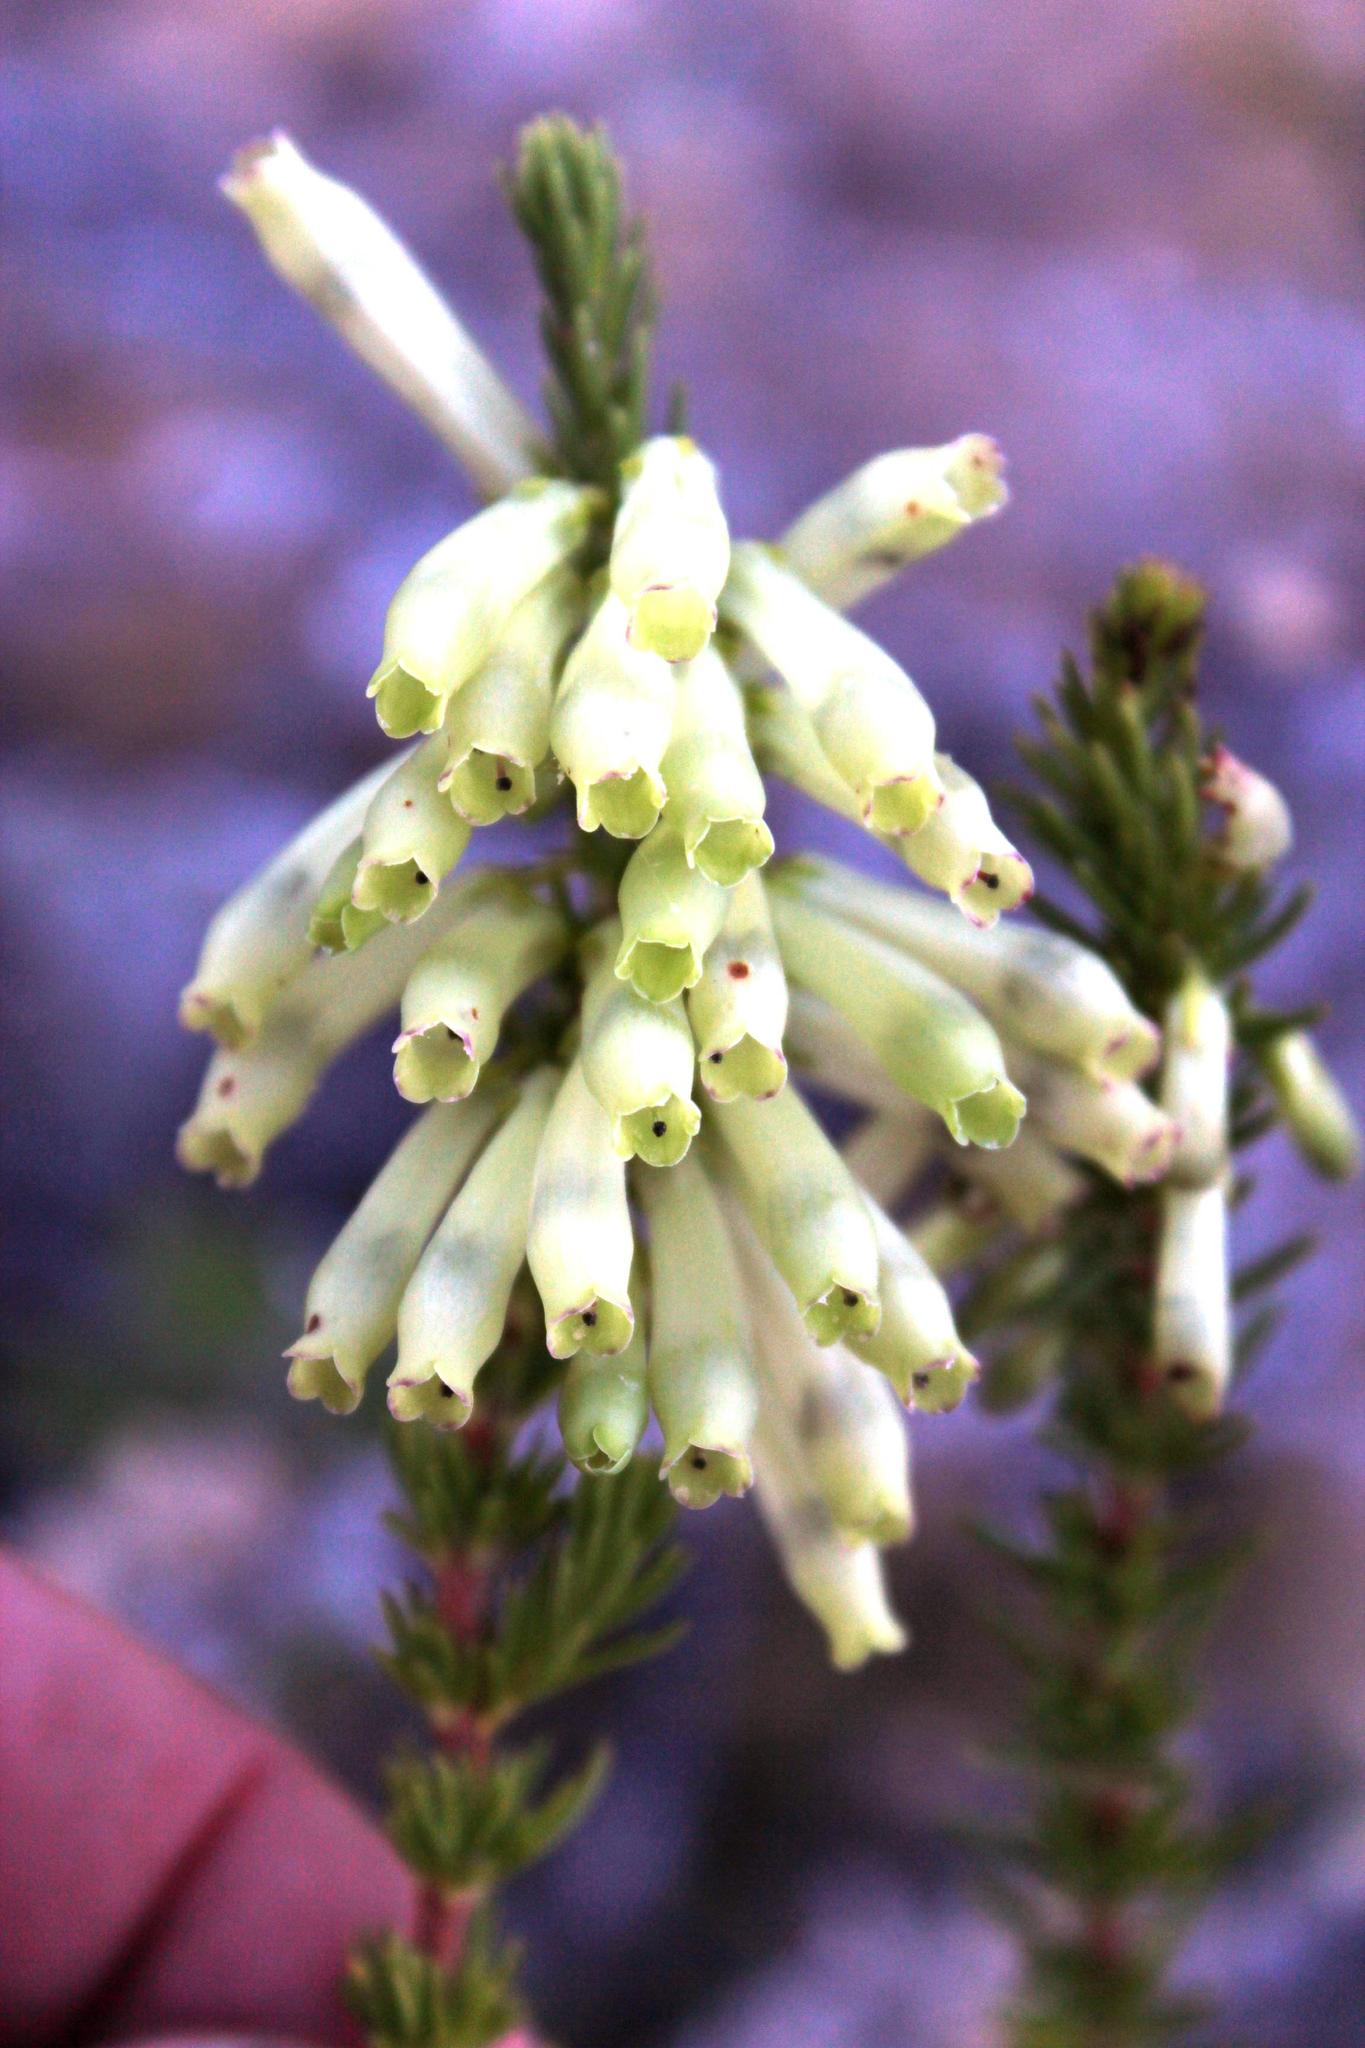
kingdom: Plantae
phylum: Tracheophyta
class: Magnoliopsida
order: Ericales
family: Ericaceae
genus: Erica
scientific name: Erica mammosa
